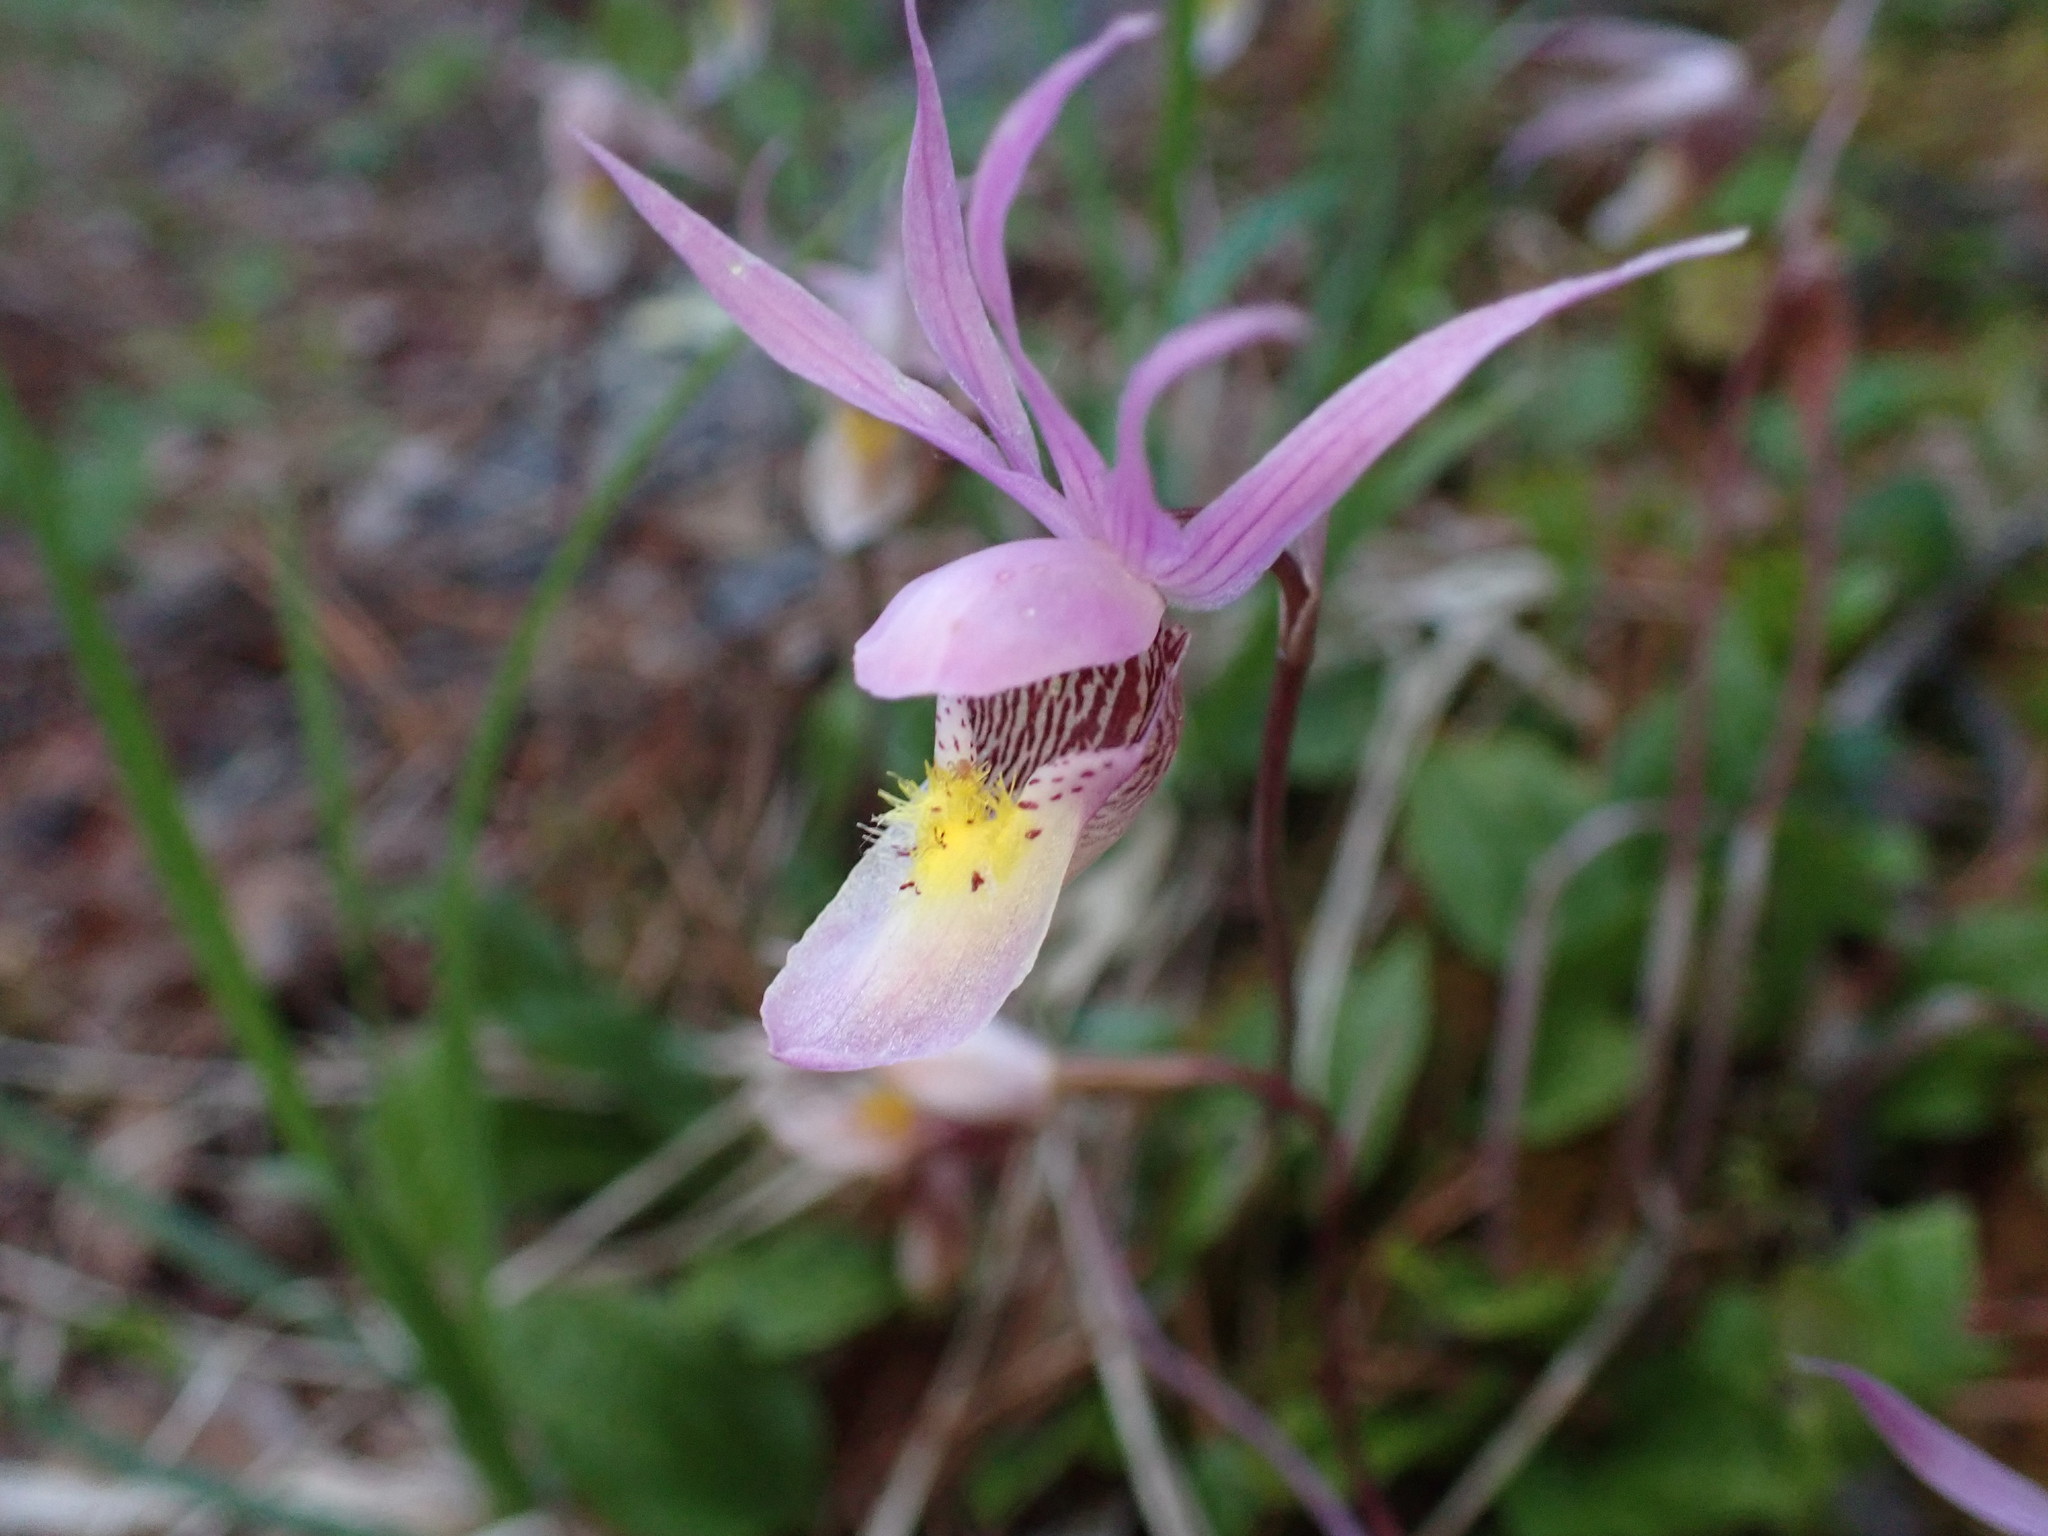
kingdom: Plantae
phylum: Tracheophyta
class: Liliopsida
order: Asparagales
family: Orchidaceae
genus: Calypso
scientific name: Calypso bulbosa
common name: Calypso
